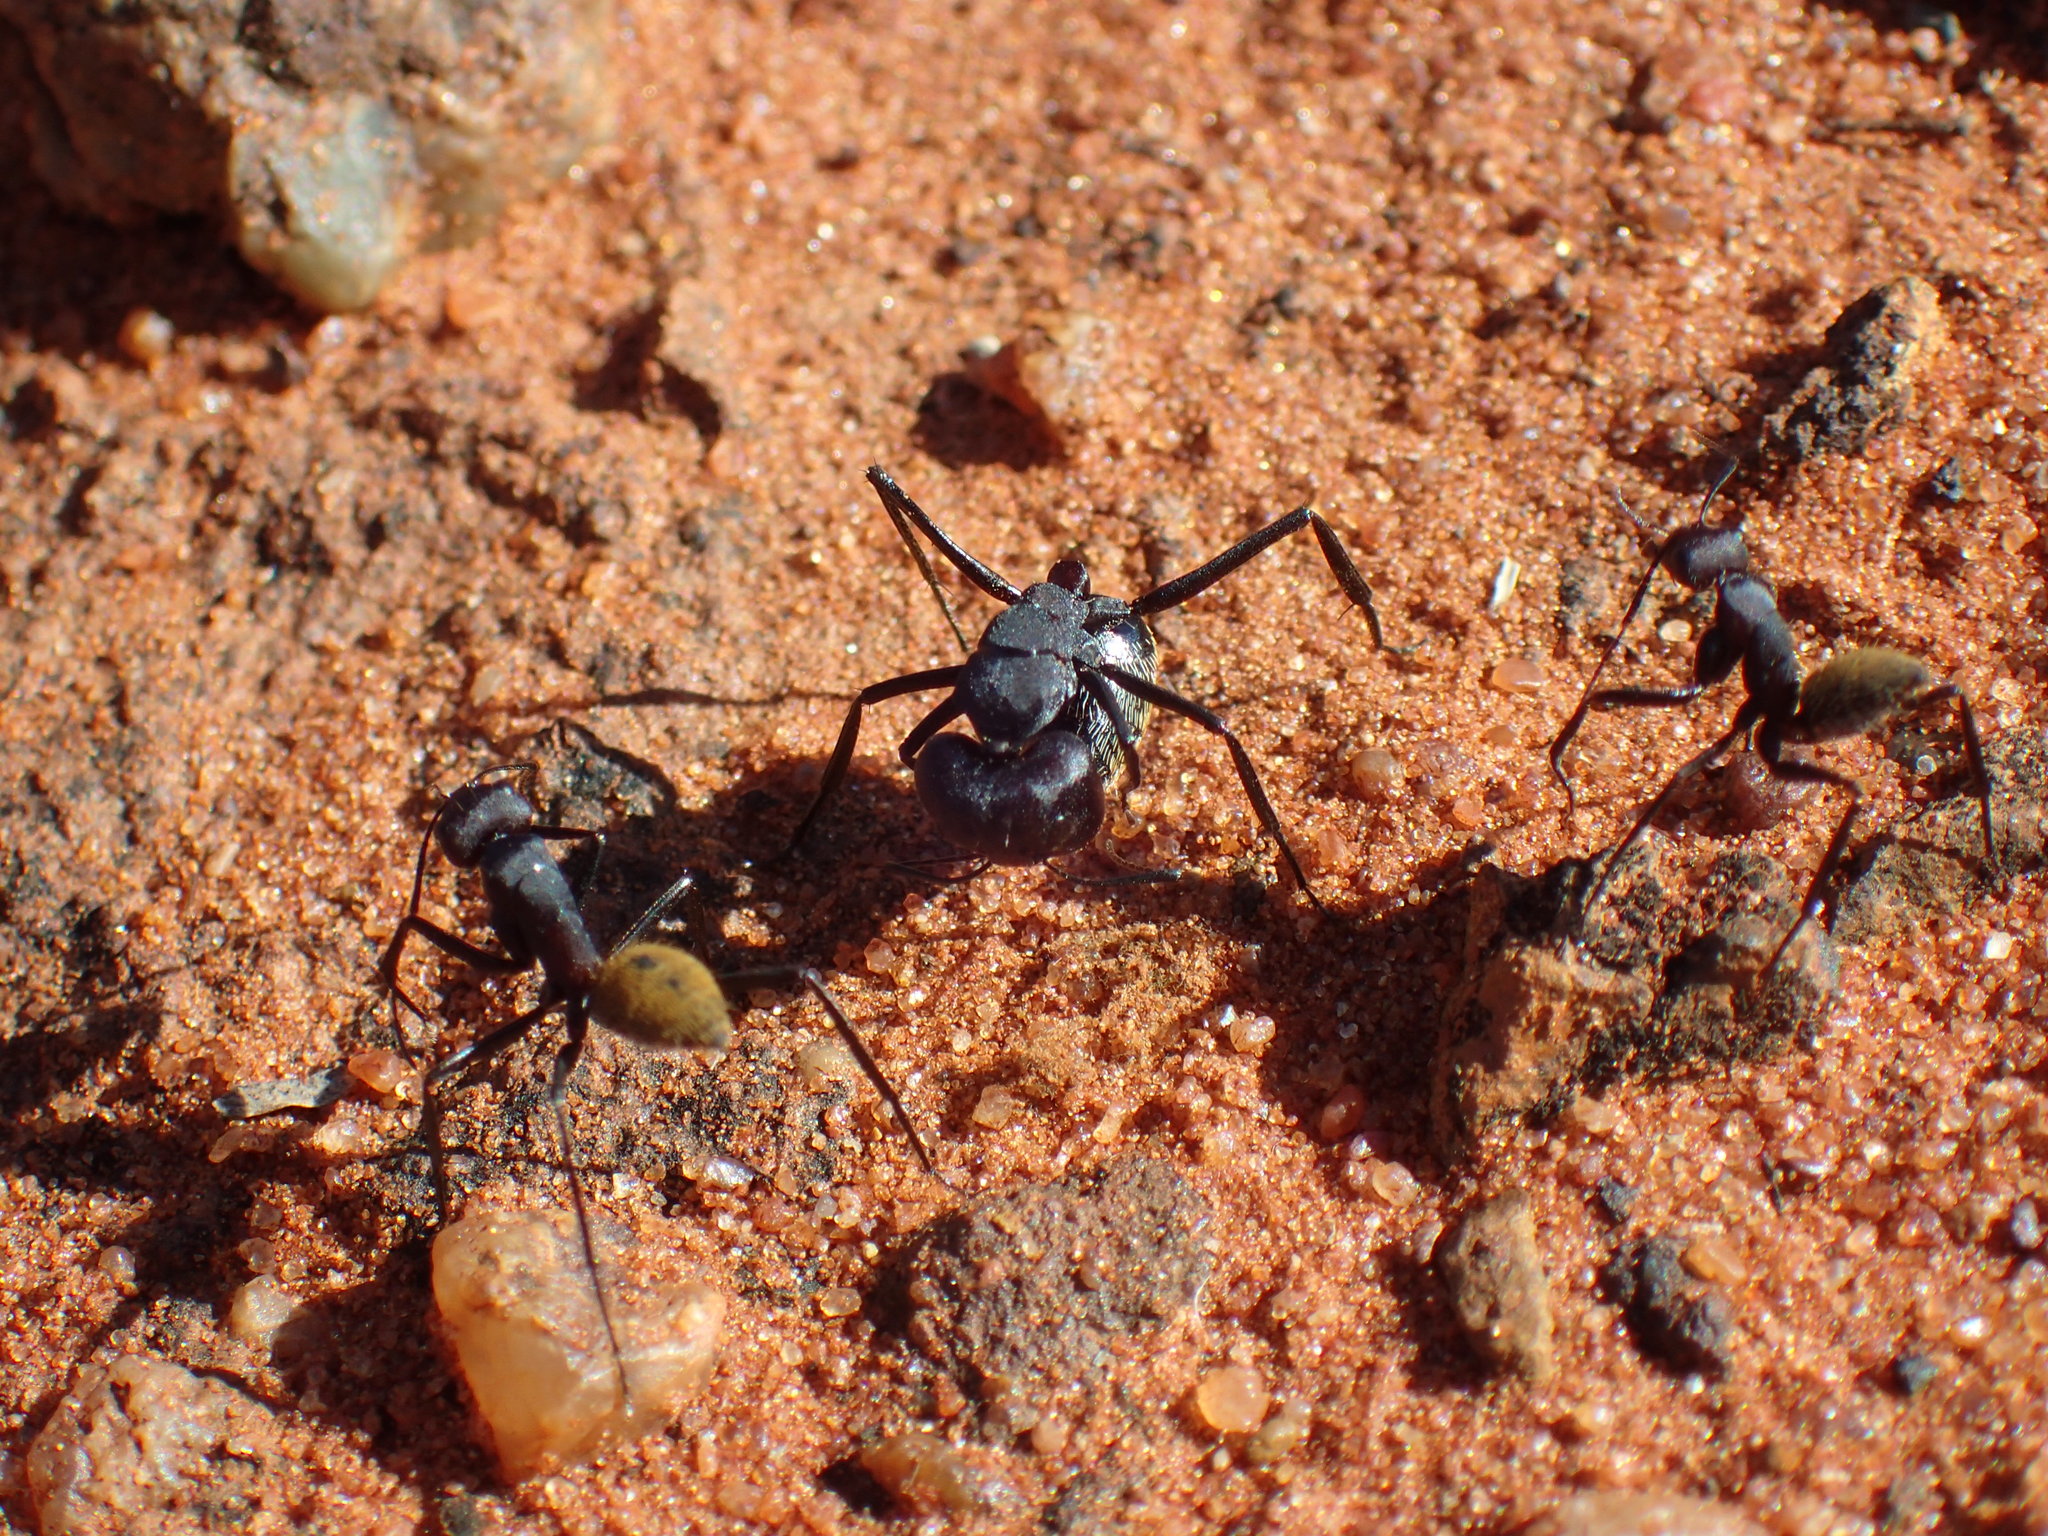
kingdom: Animalia
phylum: Arthropoda
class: Insecta
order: Hymenoptera
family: Formicidae
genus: Camponotus
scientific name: Camponotus fulvopilosus
